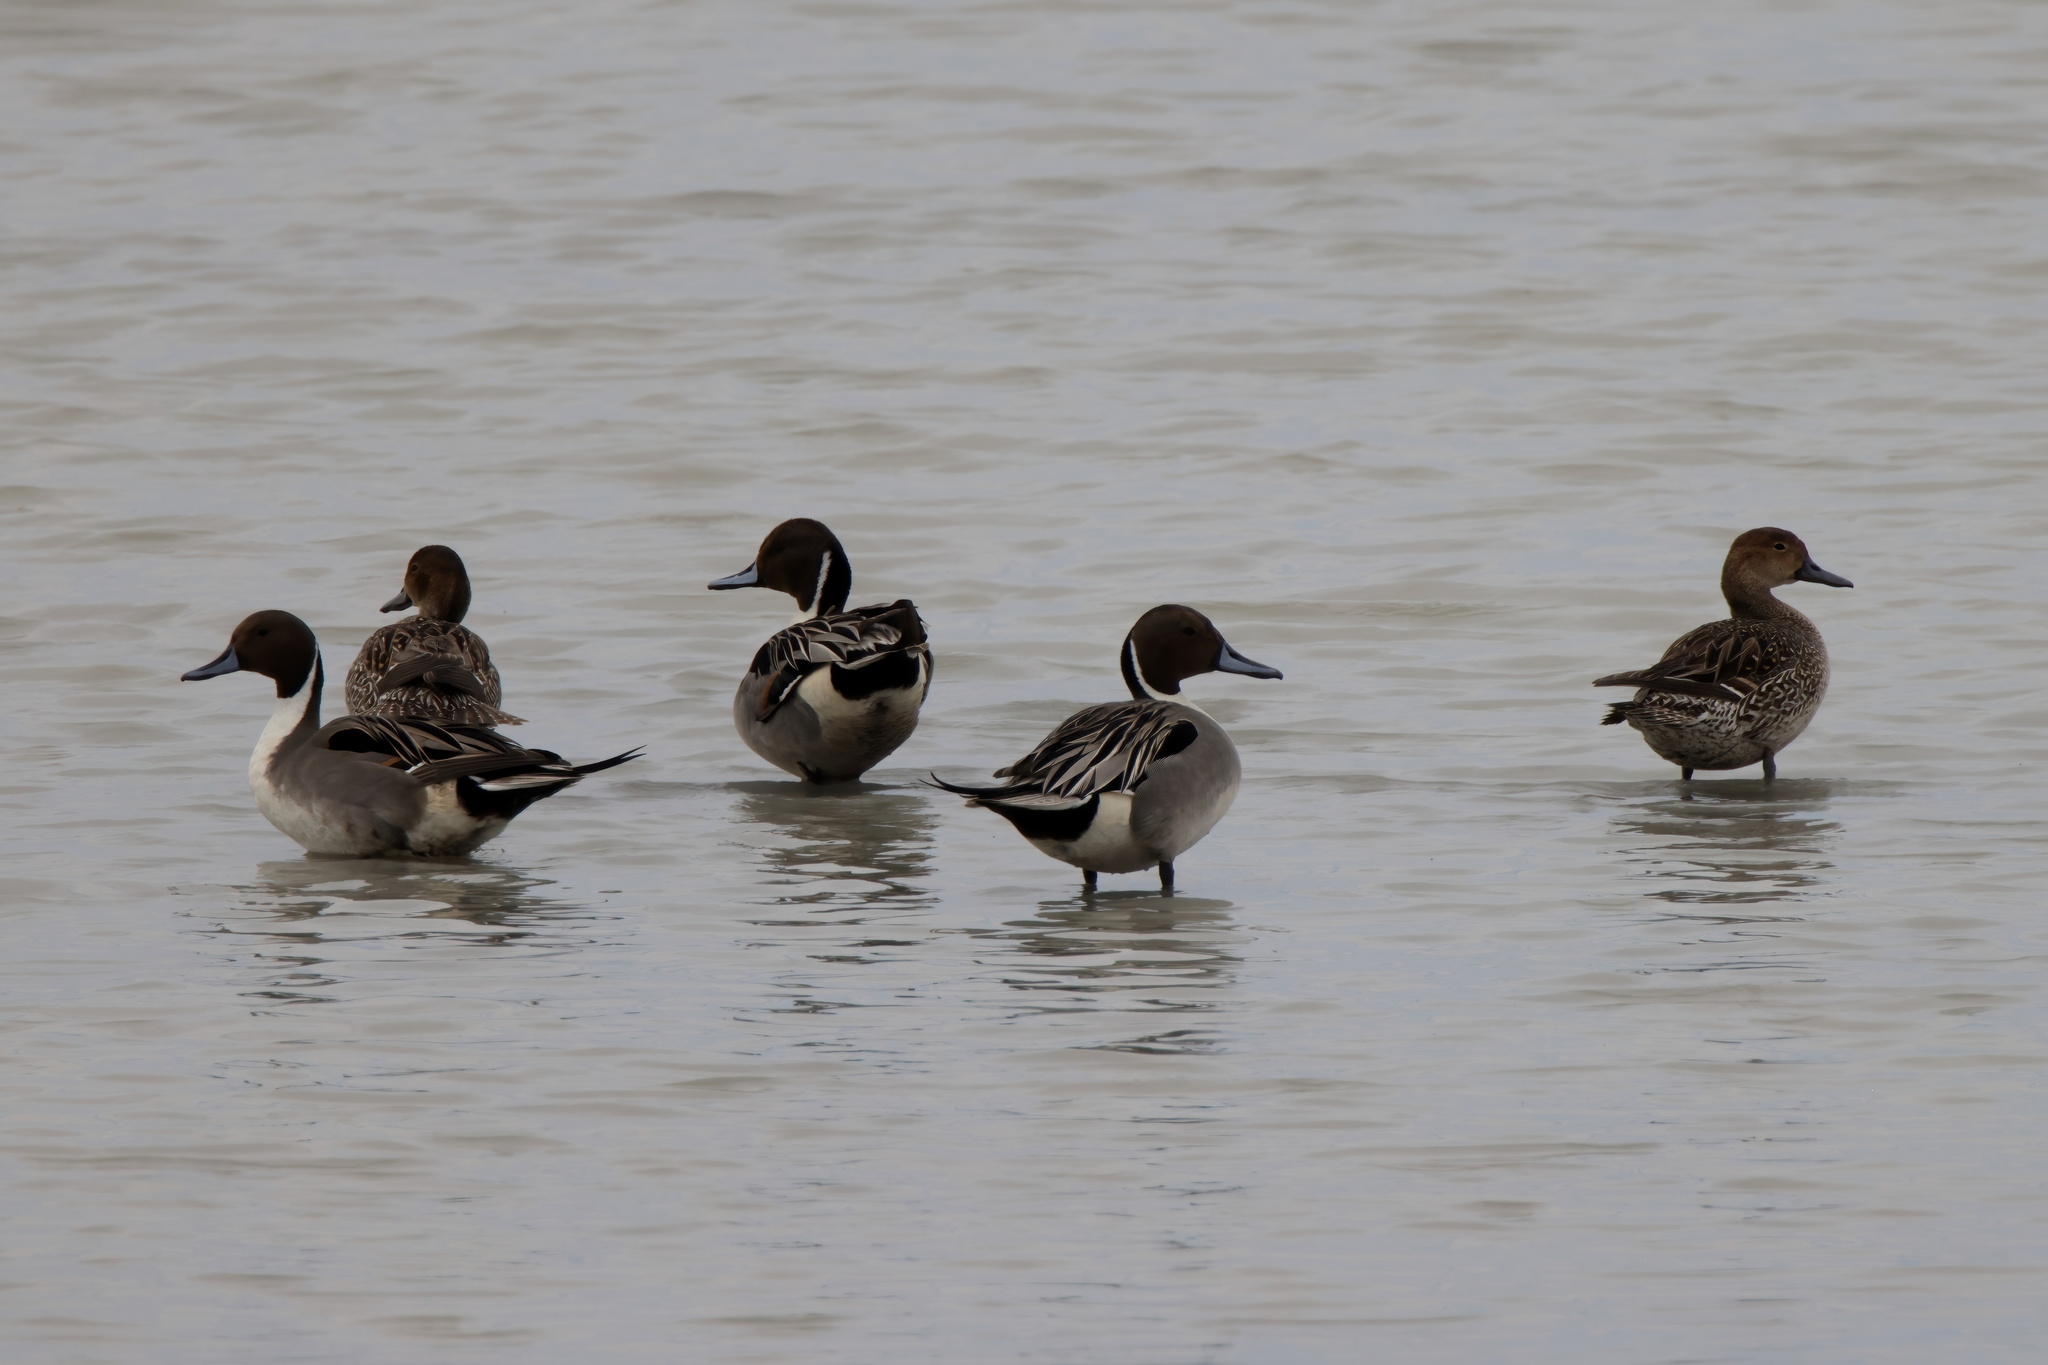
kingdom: Animalia
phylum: Chordata
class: Aves
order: Anseriformes
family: Anatidae
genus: Anas
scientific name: Anas acuta
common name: Northern pintail
